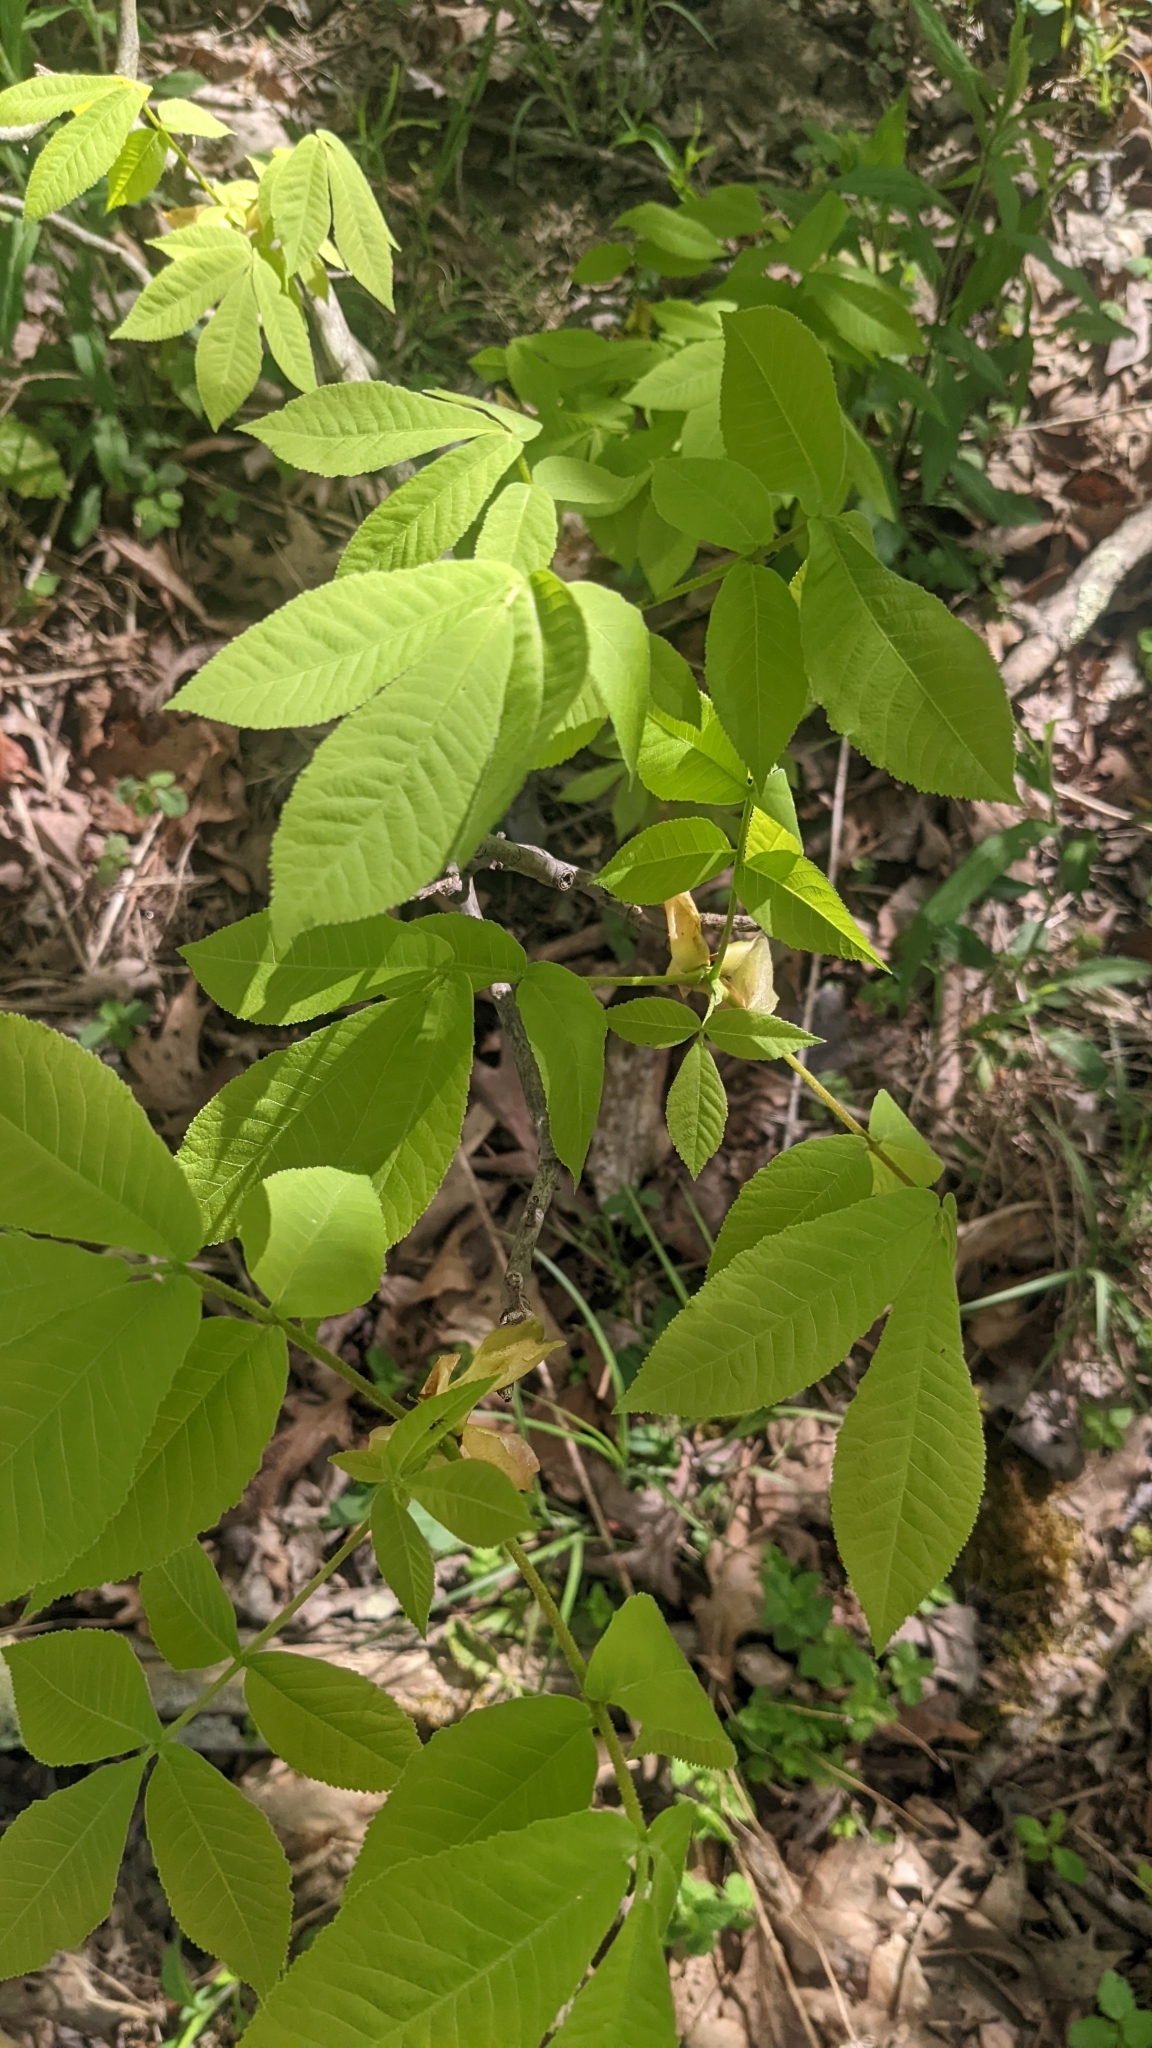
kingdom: Plantae
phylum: Tracheophyta
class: Magnoliopsida
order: Fagales
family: Juglandaceae
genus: Carya
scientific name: Carya cordiformis
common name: Bitternut hickory
